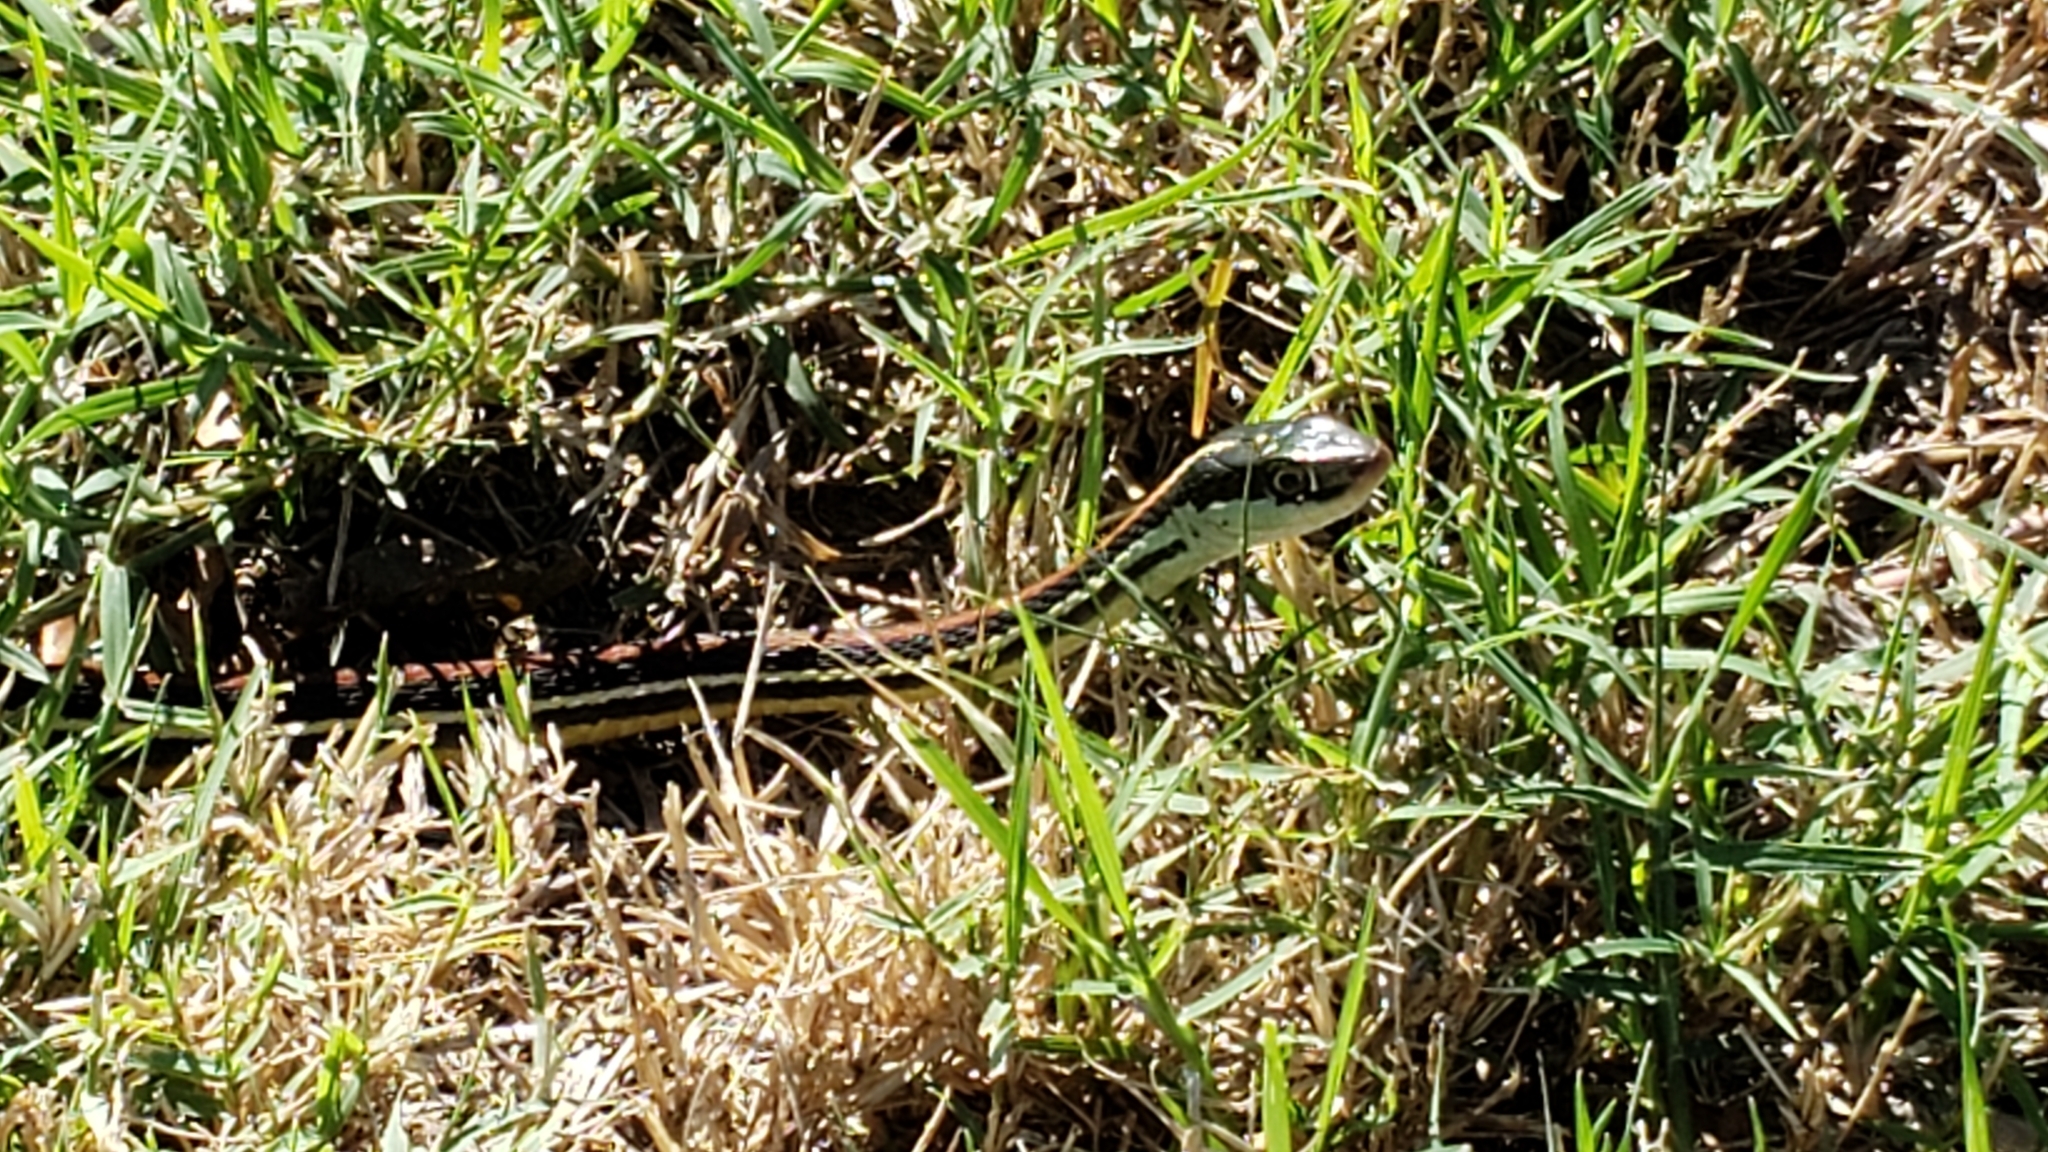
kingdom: Animalia
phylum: Chordata
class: Squamata
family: Colubridae
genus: Thamnophis
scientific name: Thamnophis proximus
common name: Western ribbon snake
